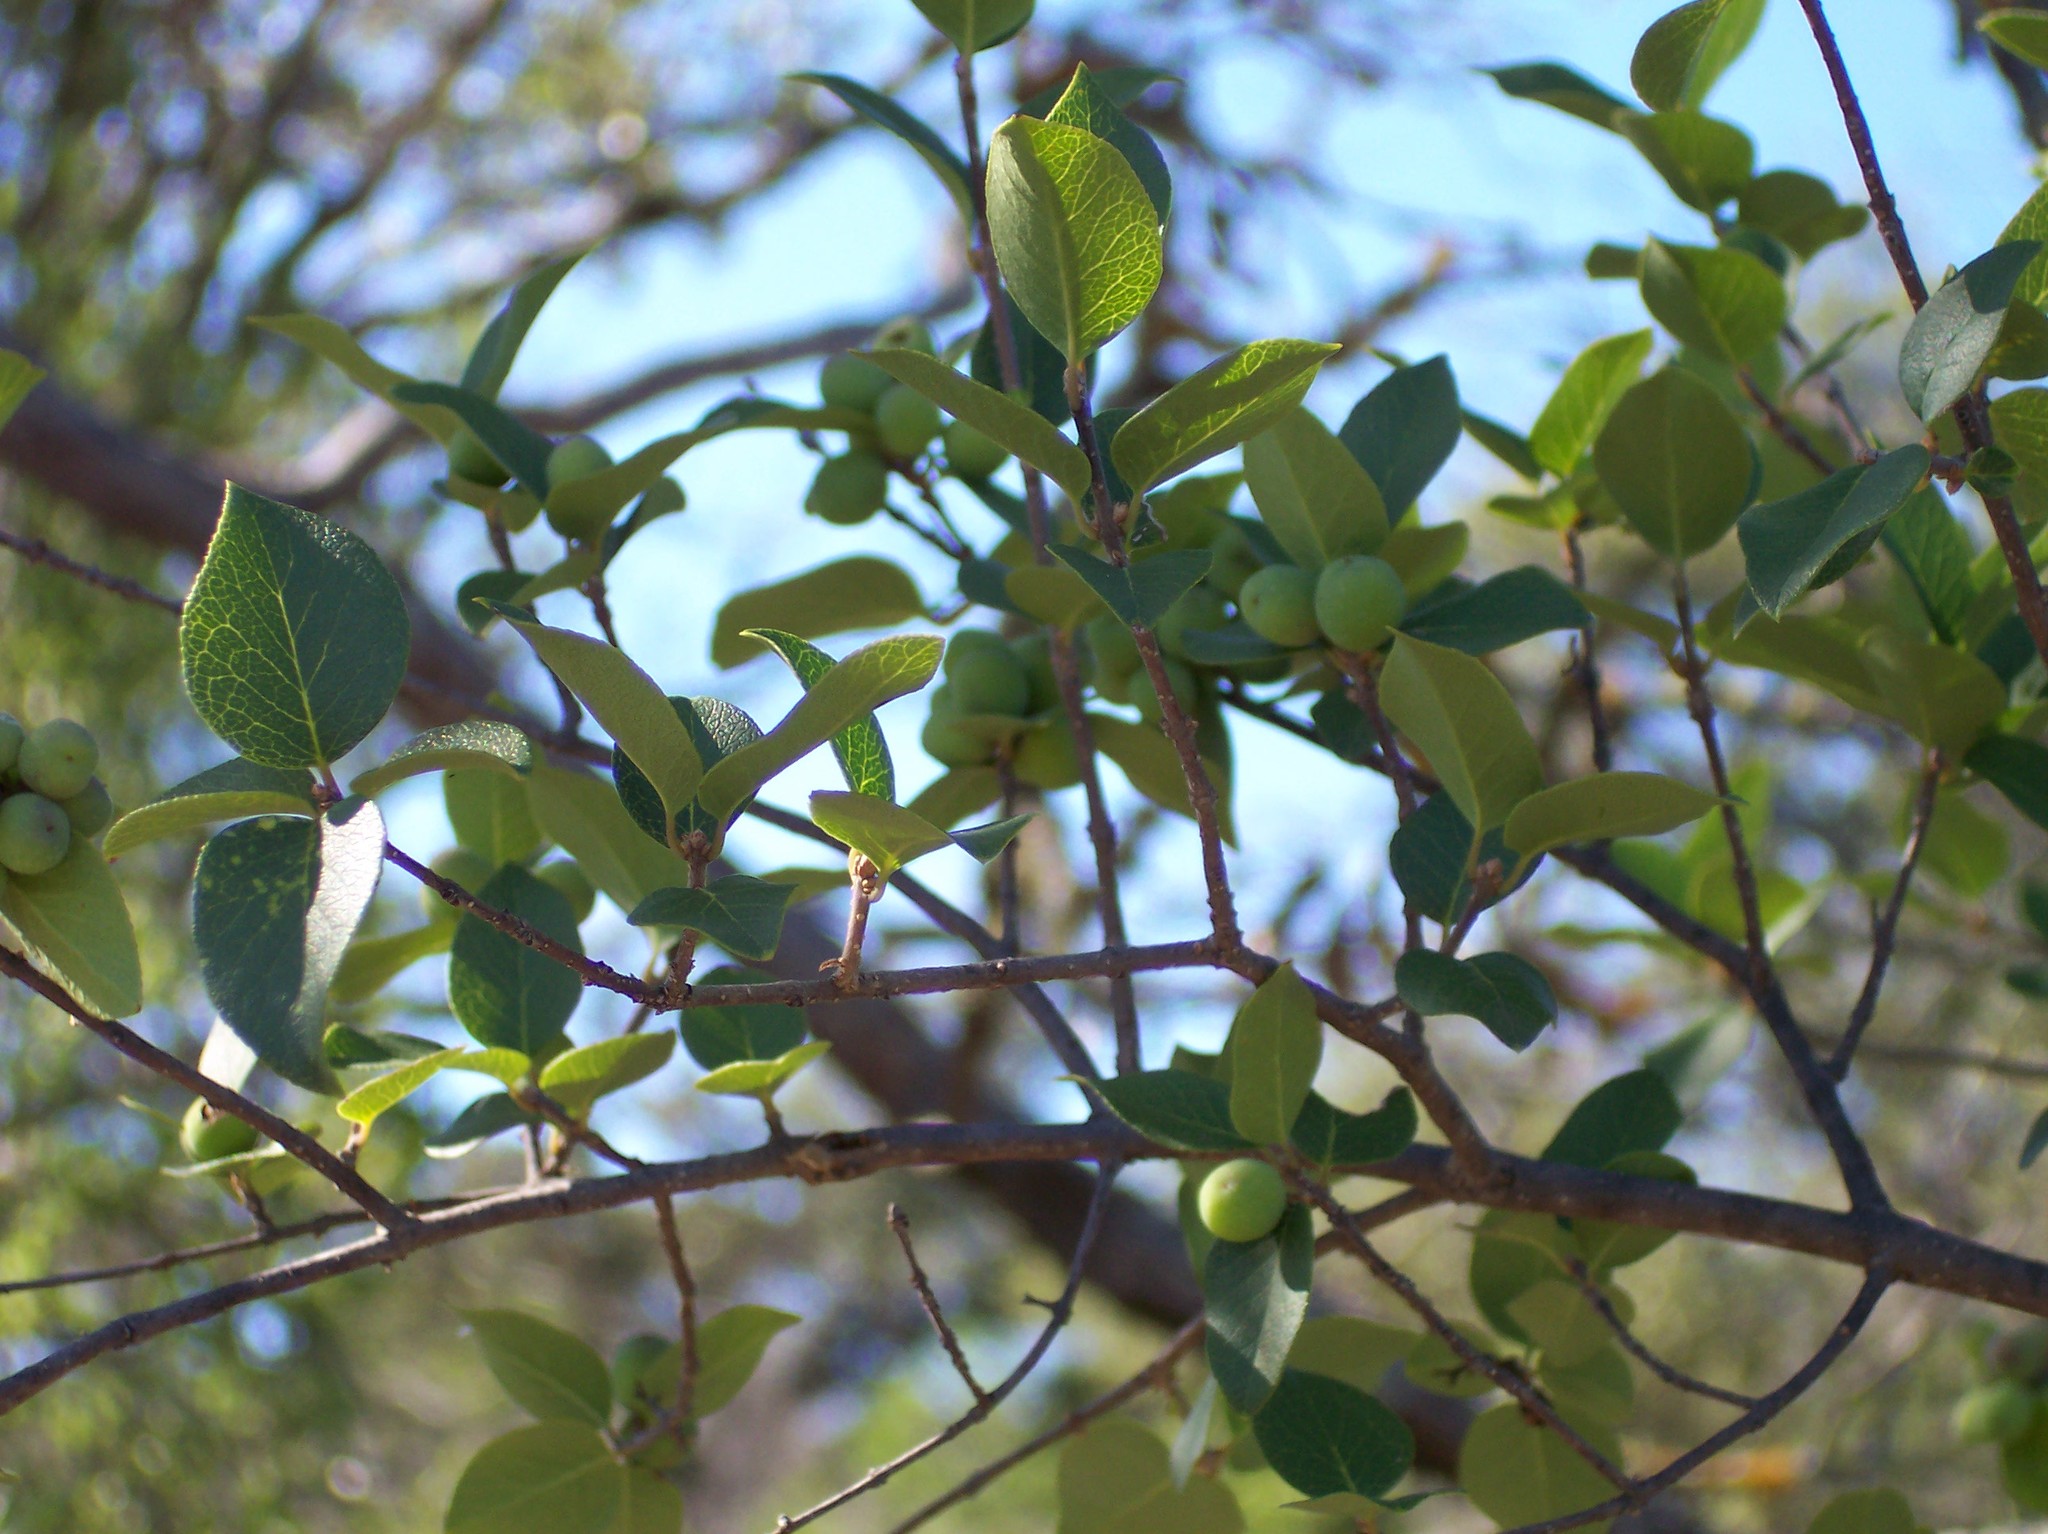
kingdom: Plantae
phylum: Tracheophyta
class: Magnoliopsida
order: Lamiales
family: Oleaceae
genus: Forestiera
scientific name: Forestiera reticulata
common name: Netleaf swamp-privet
